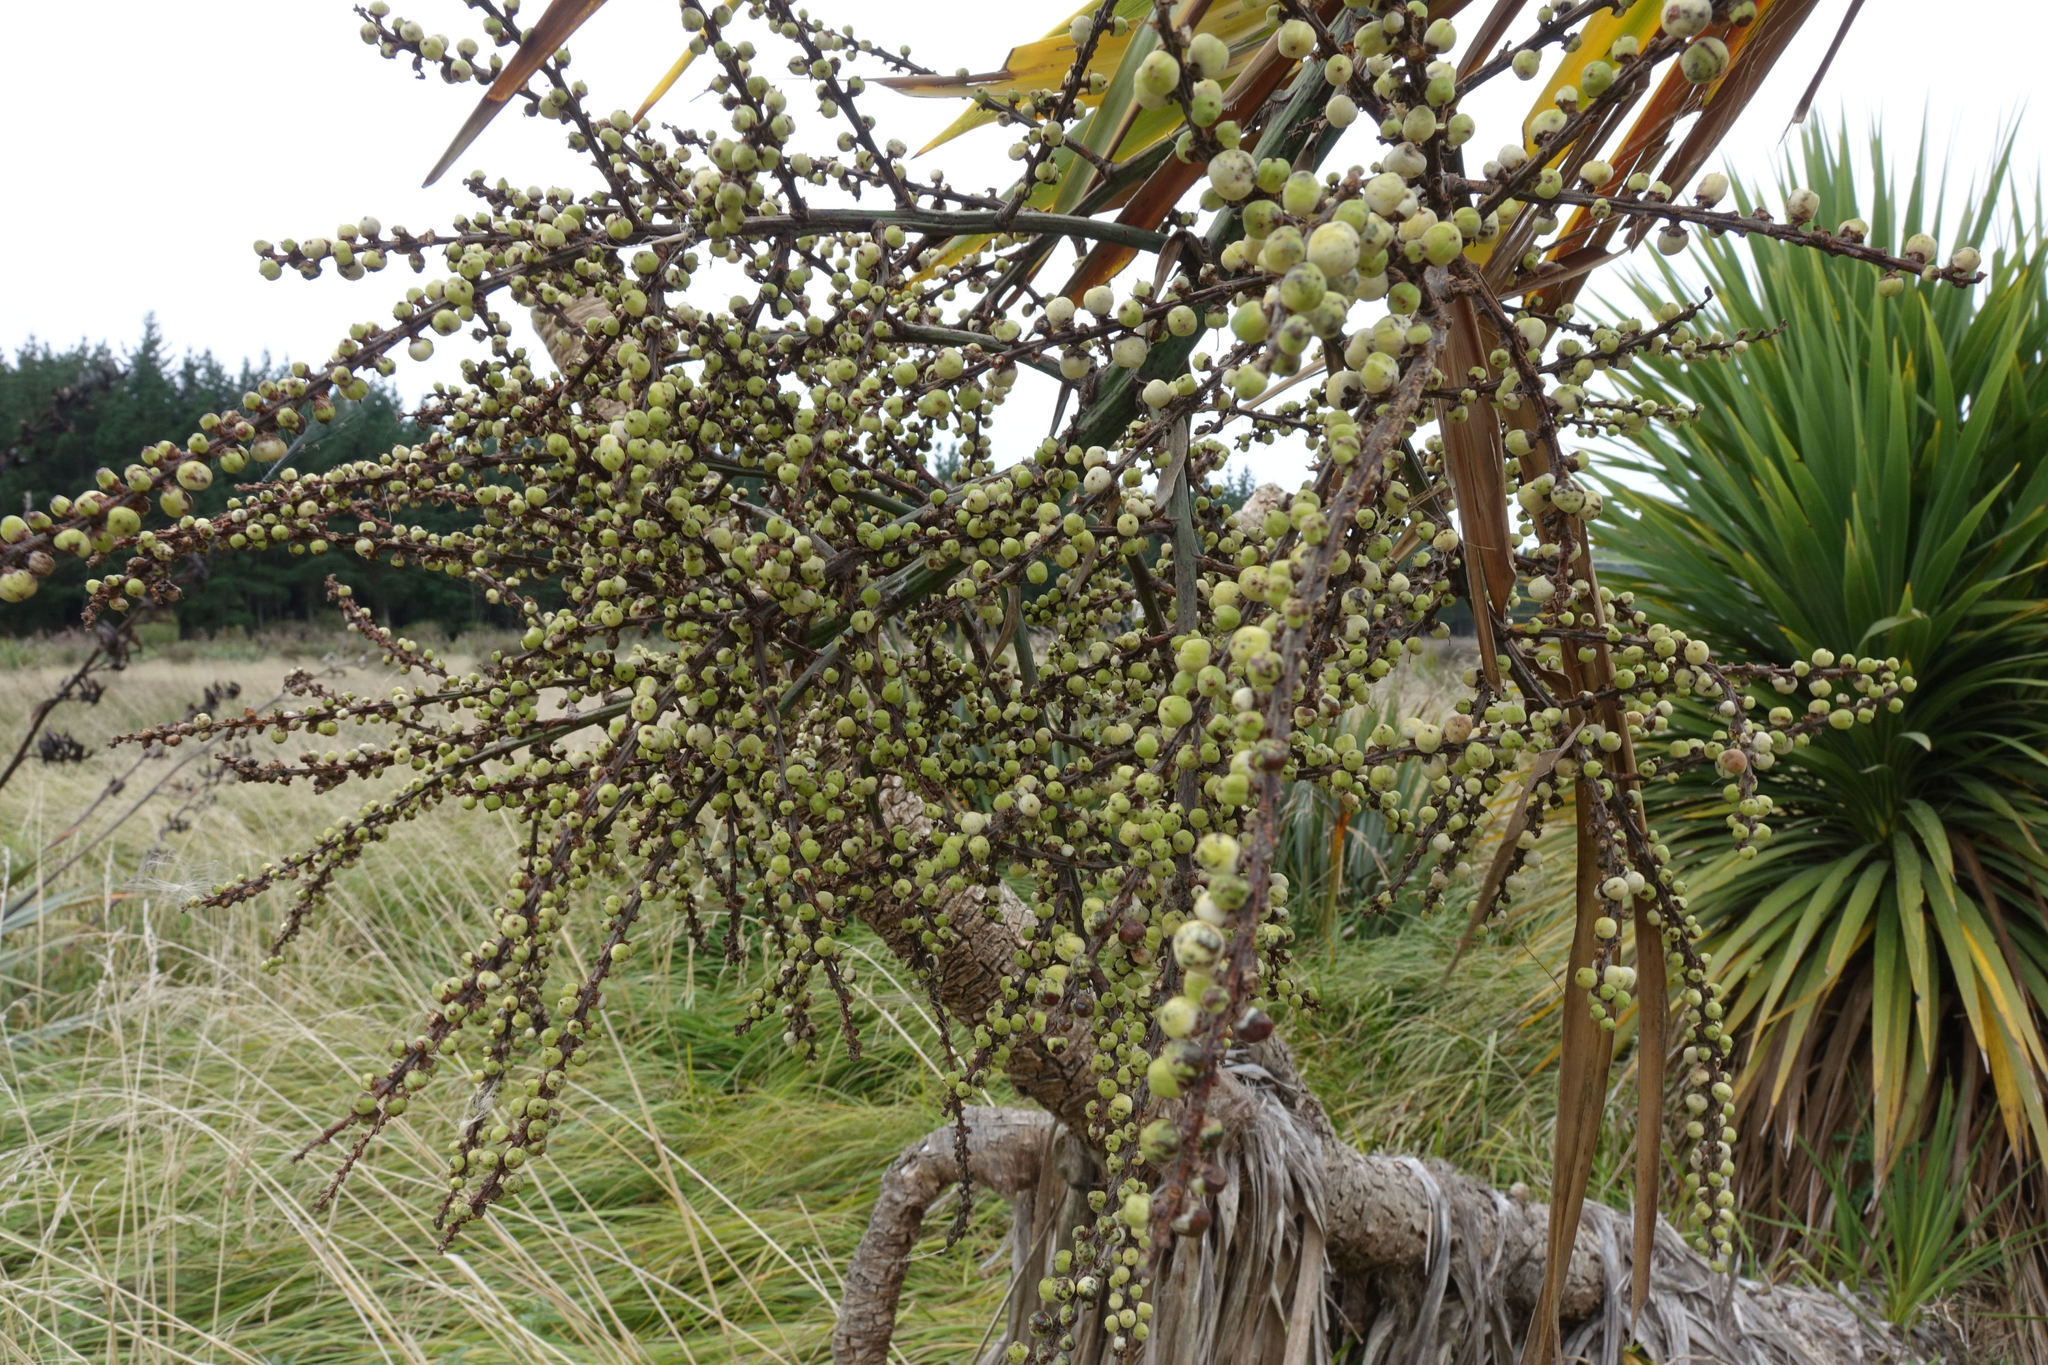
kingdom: Plantae
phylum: Tracheophyta
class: Liliopsida
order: Asparagales
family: Asparagaceae
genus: Cordyline
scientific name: Cordyline australis
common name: Cabbage-palm
